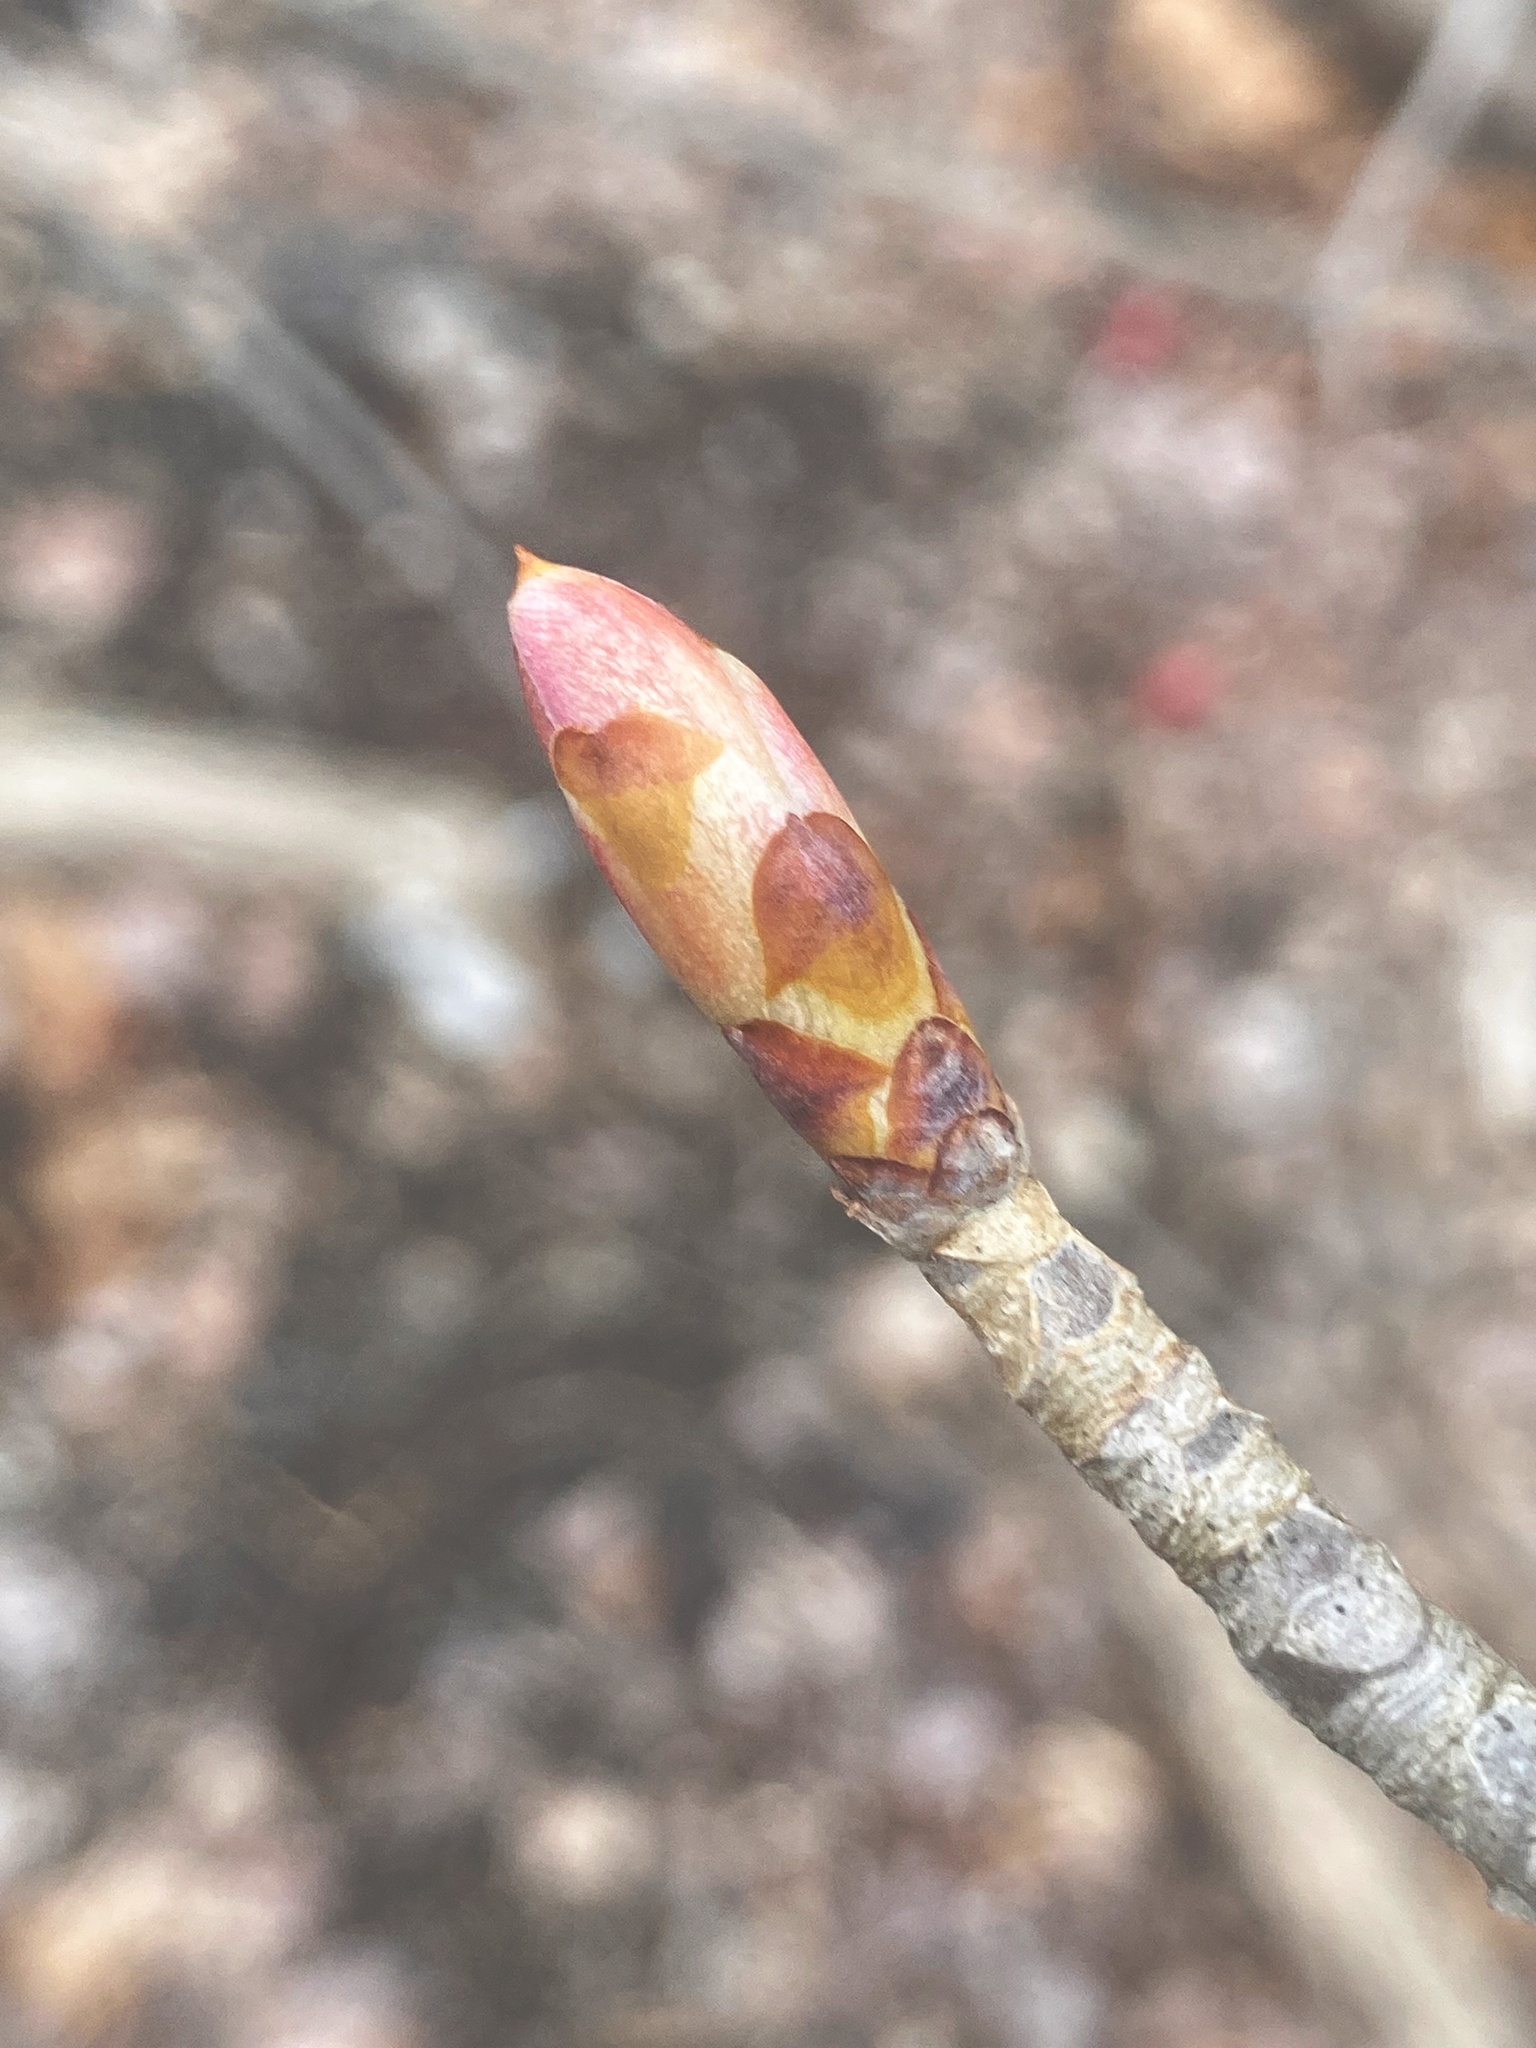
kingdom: Plantae
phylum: Tracheophyta
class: Magnoliopsida
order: Sapindales
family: Sapindaceae
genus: Aesculus
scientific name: Aesculus flava
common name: Yellow buckeye
